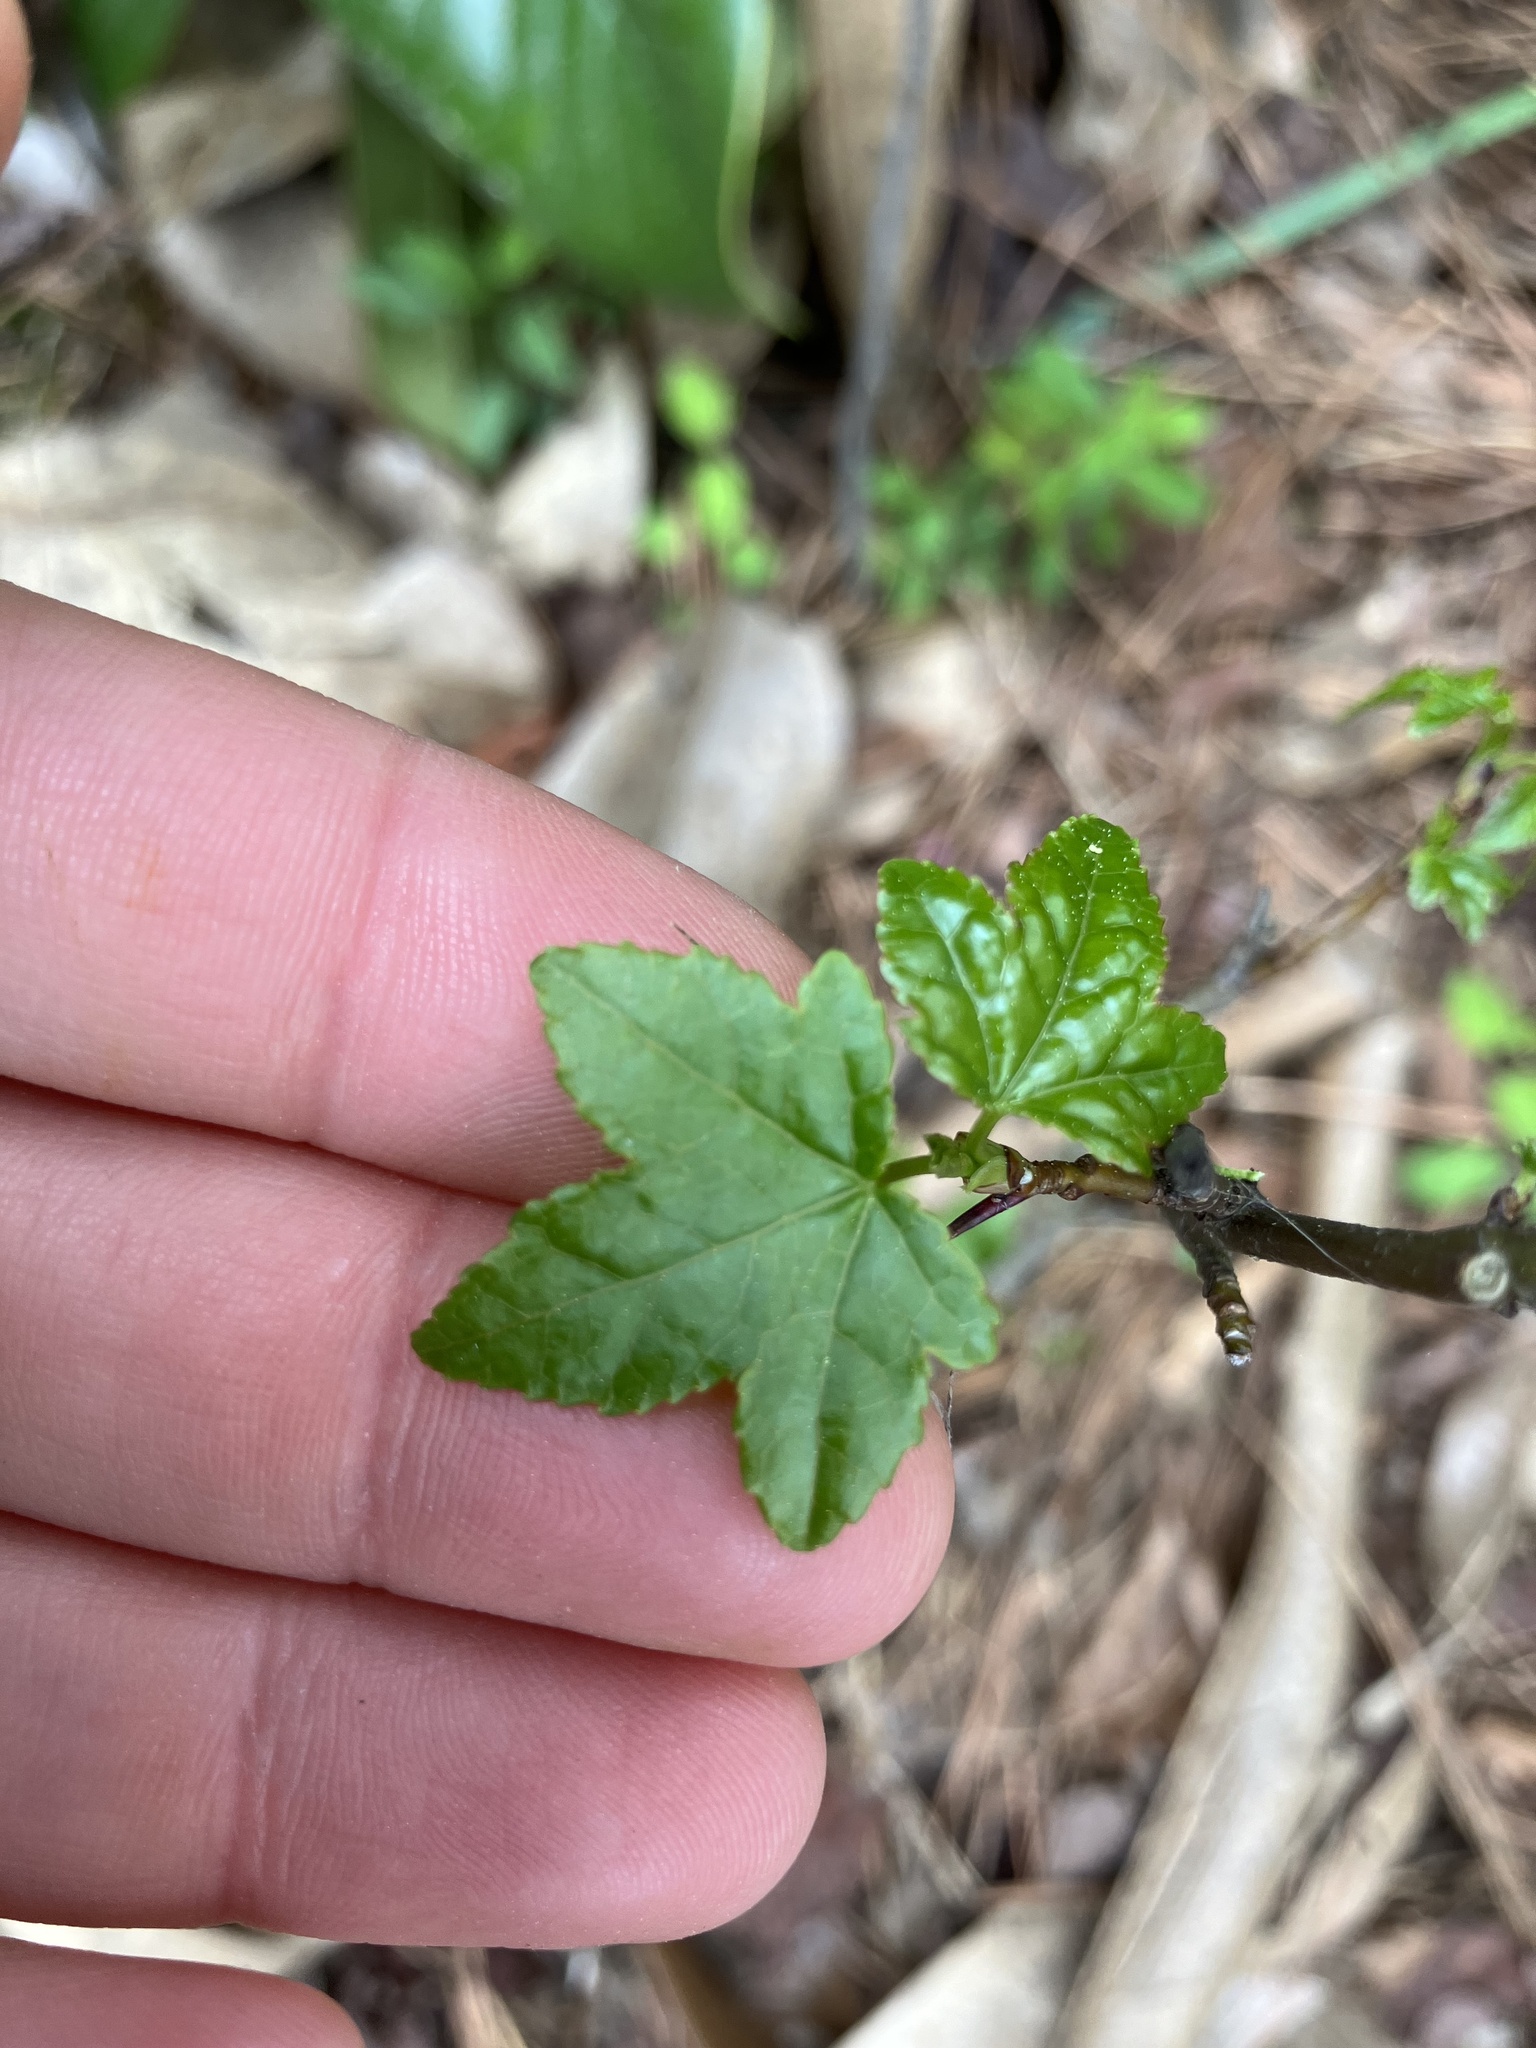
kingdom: Plantae
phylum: Tracheophyta
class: Magnoliopsida
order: Saxifragales
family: Altingiaceae
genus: Liquidambar
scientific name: Liquidambar styraciflua
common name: Sweet gum
